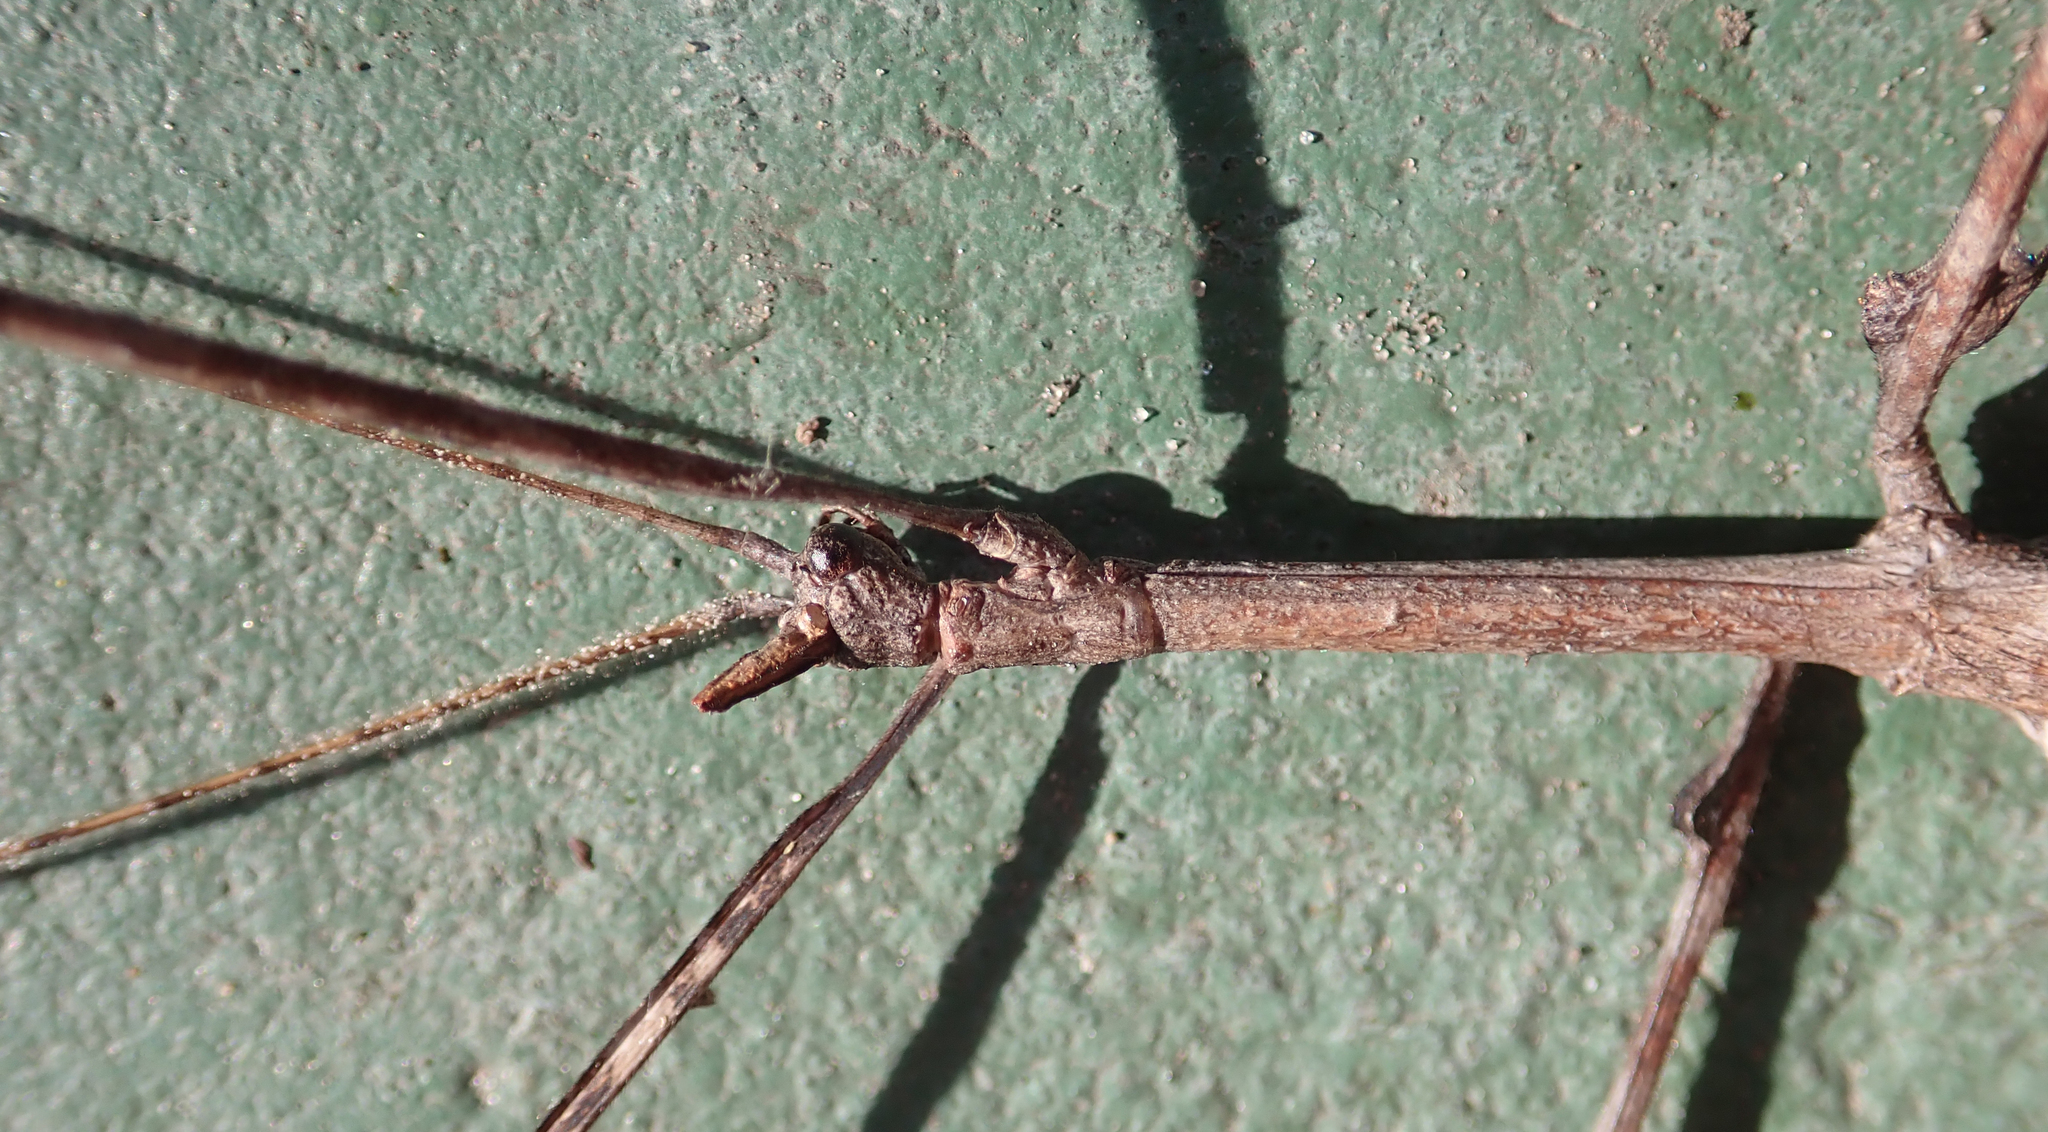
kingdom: Animalia
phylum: Arthropoda
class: Insecta
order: Phasmida
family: Diapheromeridae
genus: Bactrododema
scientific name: Bactrododema haworthii
